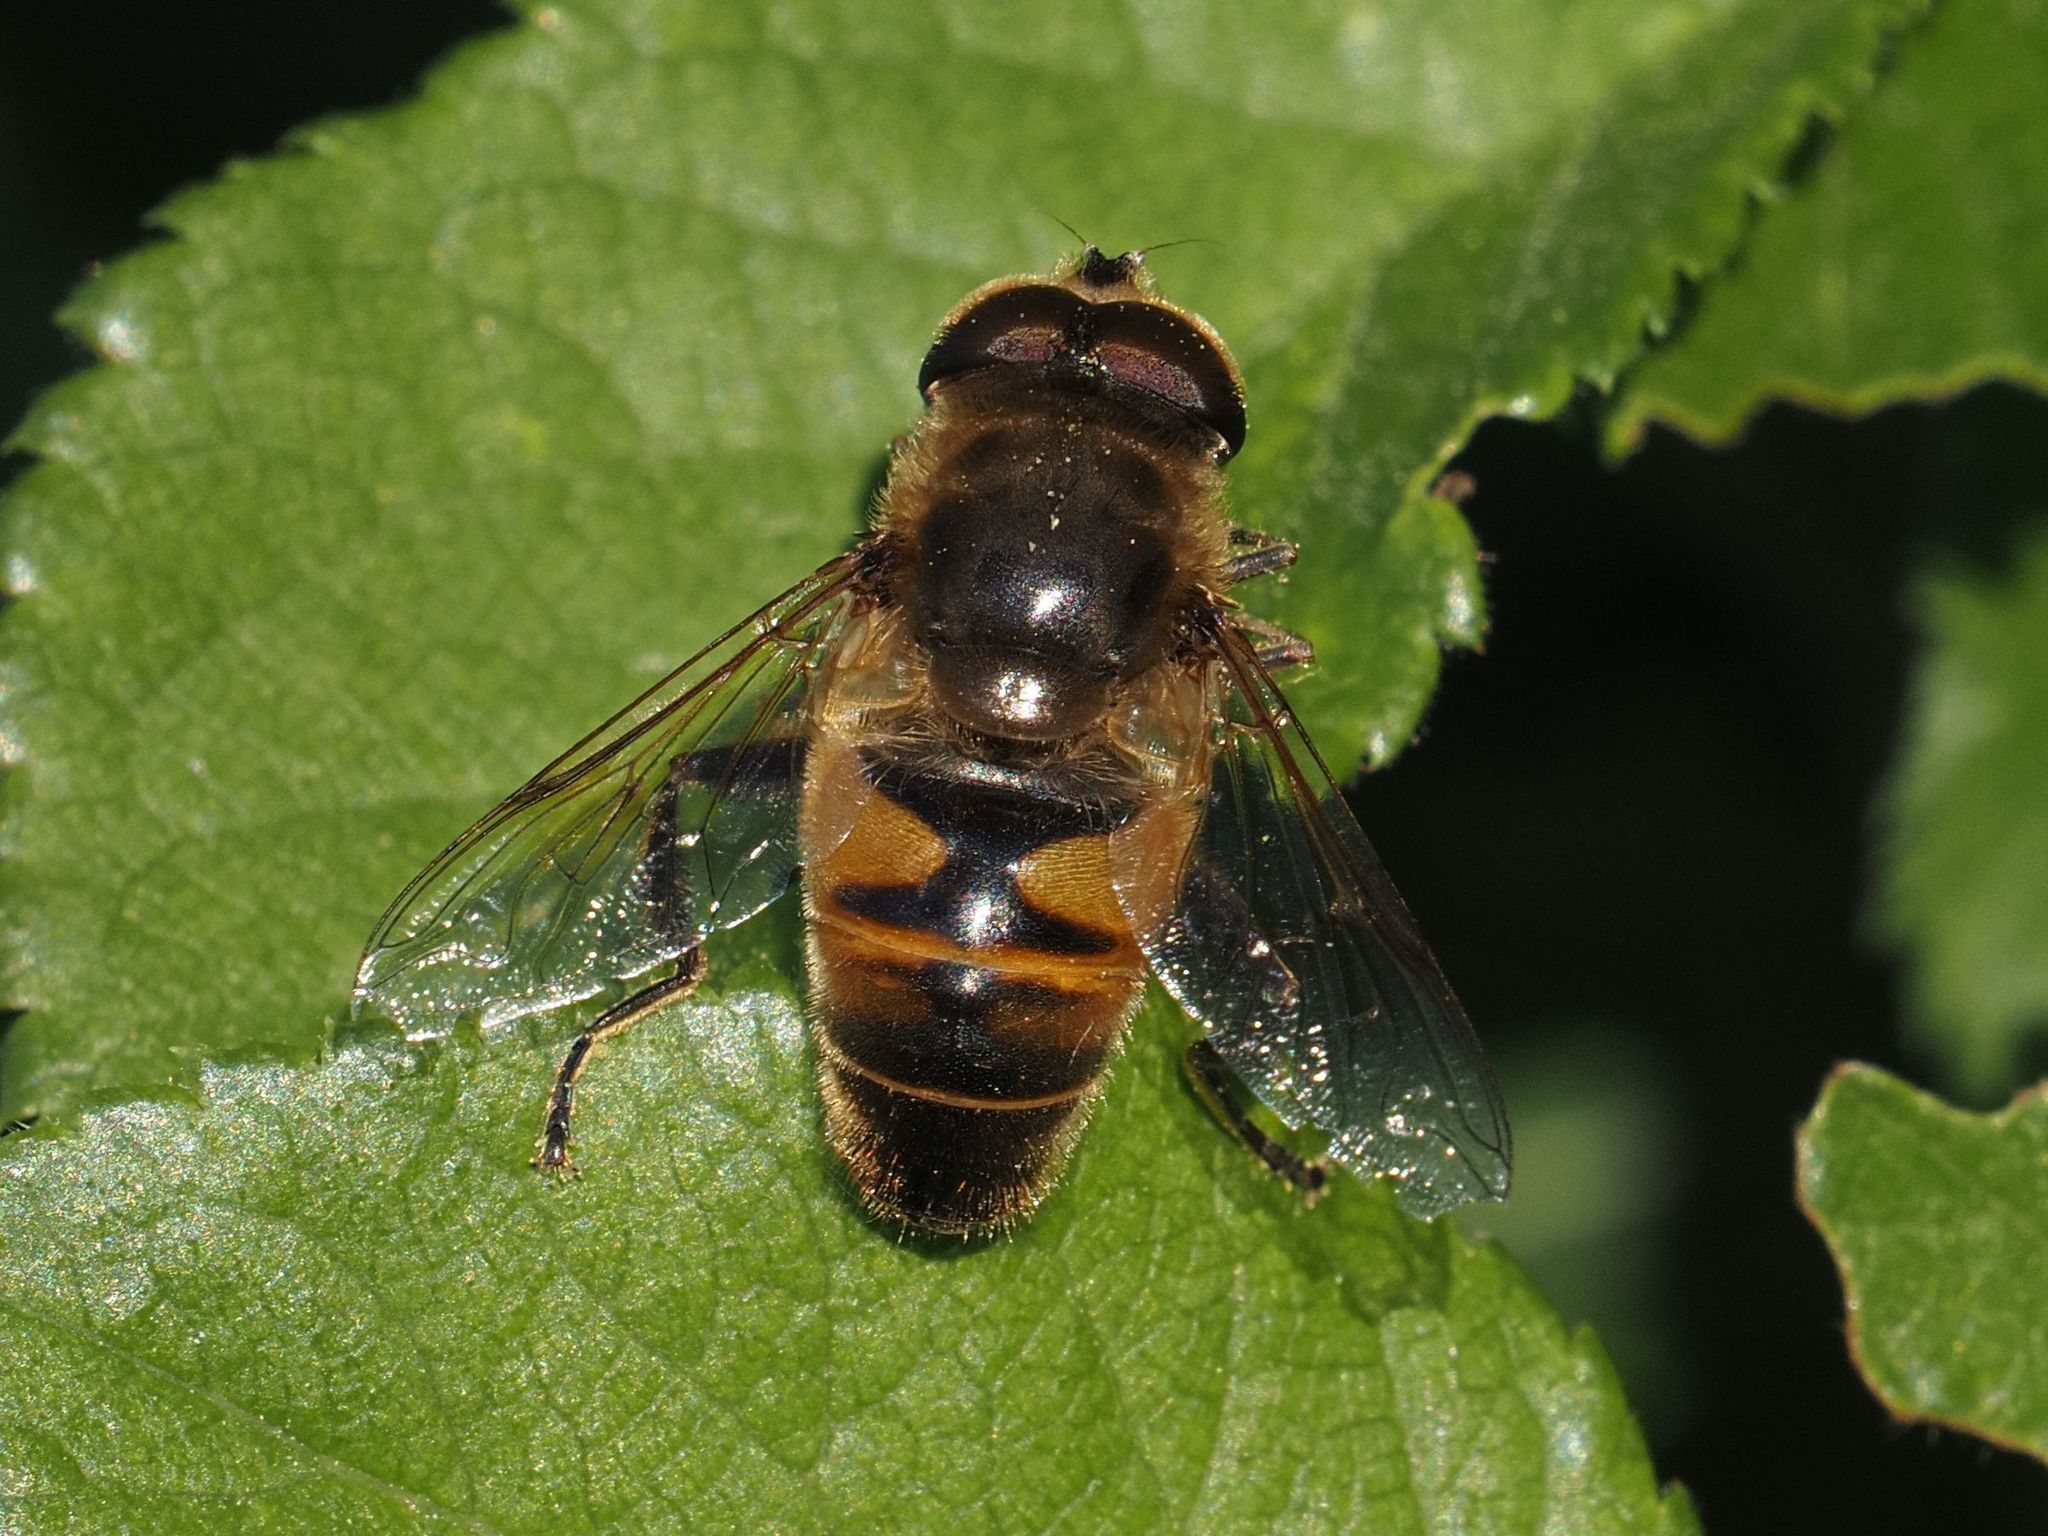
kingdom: Animalia
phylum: Arthropoda
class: Insecta
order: Diptera
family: Syrphidae
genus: Eristalis
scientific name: Eristalis tenax
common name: Drone fly
